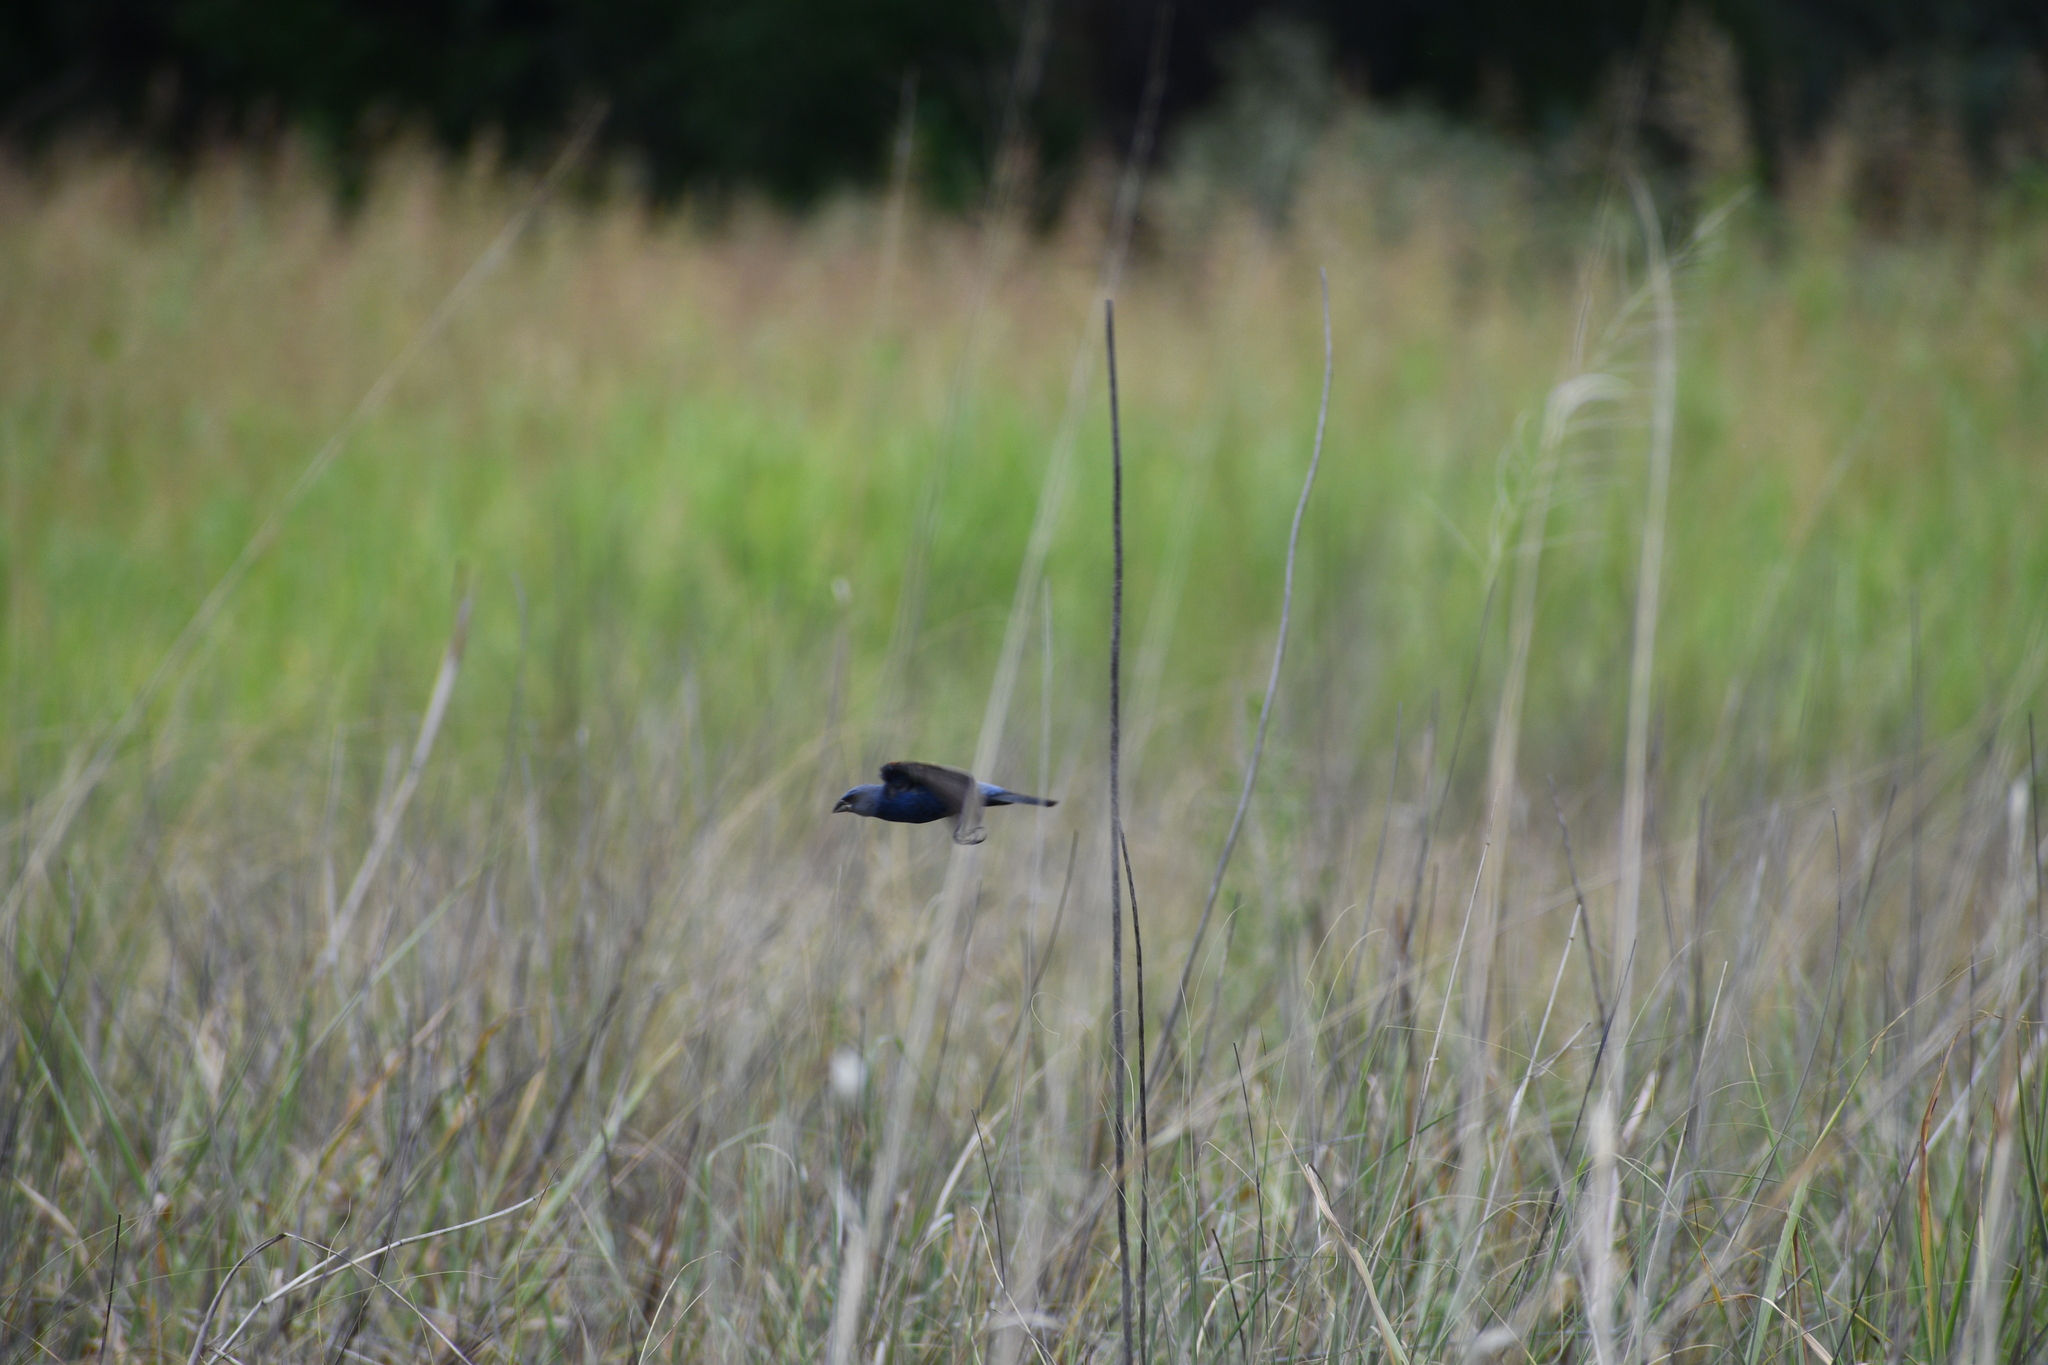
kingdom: Animalia
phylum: Chordata
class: Aves
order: Passeriformes
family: Cardinalidae
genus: Passerina
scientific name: Passerina caerulea
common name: Blue grosbeak
